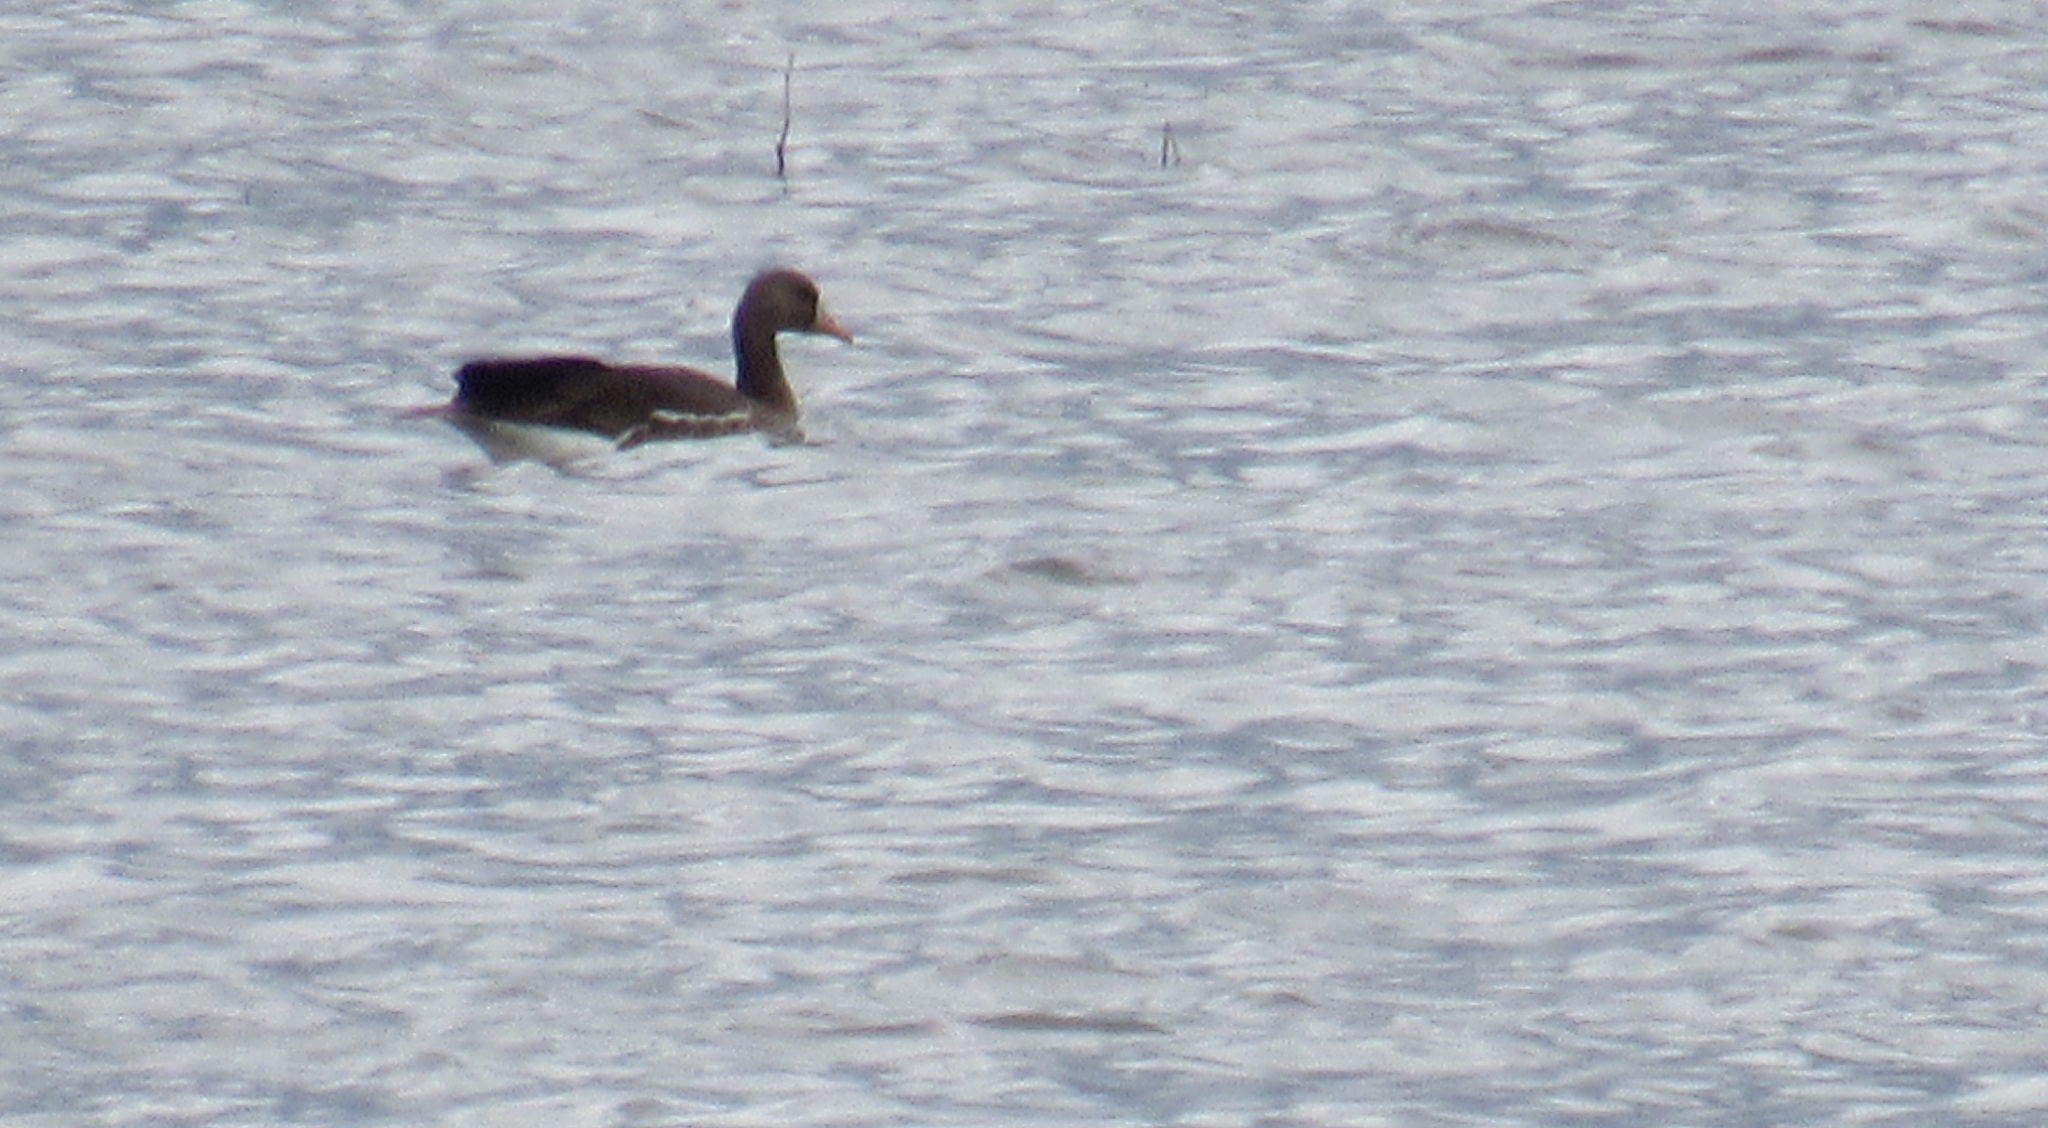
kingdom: Animalia
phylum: Chordata
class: Aves
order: Anseriformes
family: Anatidae
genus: Anser
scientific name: Anser albifrons
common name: Greater white-fronted goose
